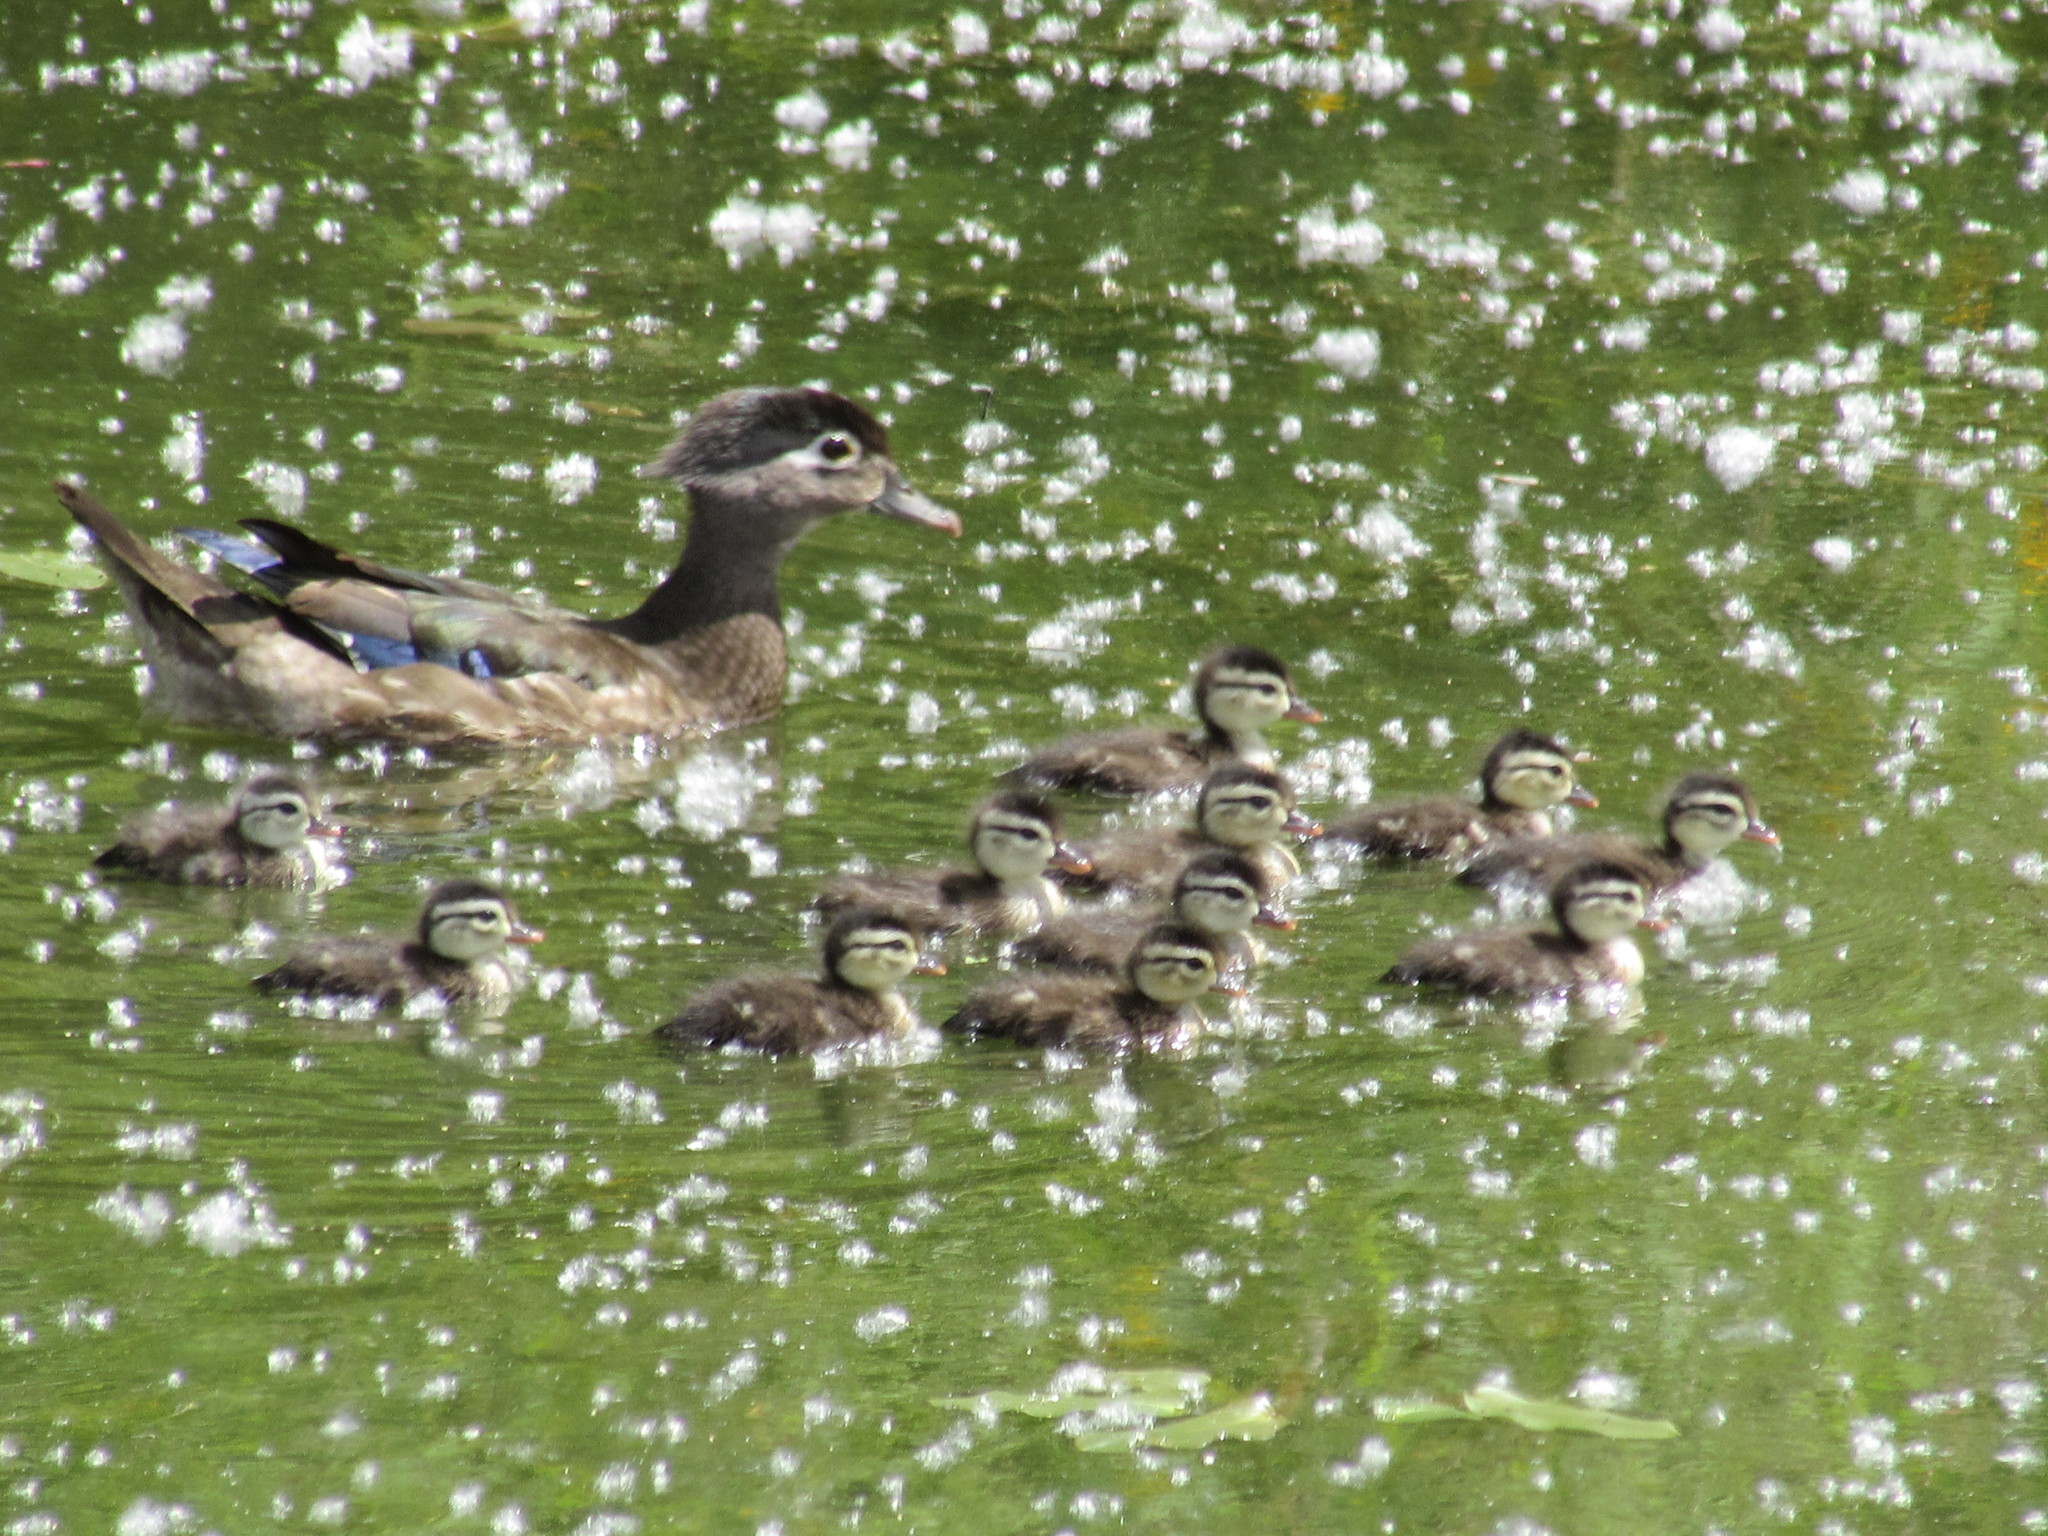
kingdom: Animalia
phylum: Chordata
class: Aves
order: Anseriformes
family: Anatidae
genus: Aix
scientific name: Aix sponsa
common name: Wood duck
